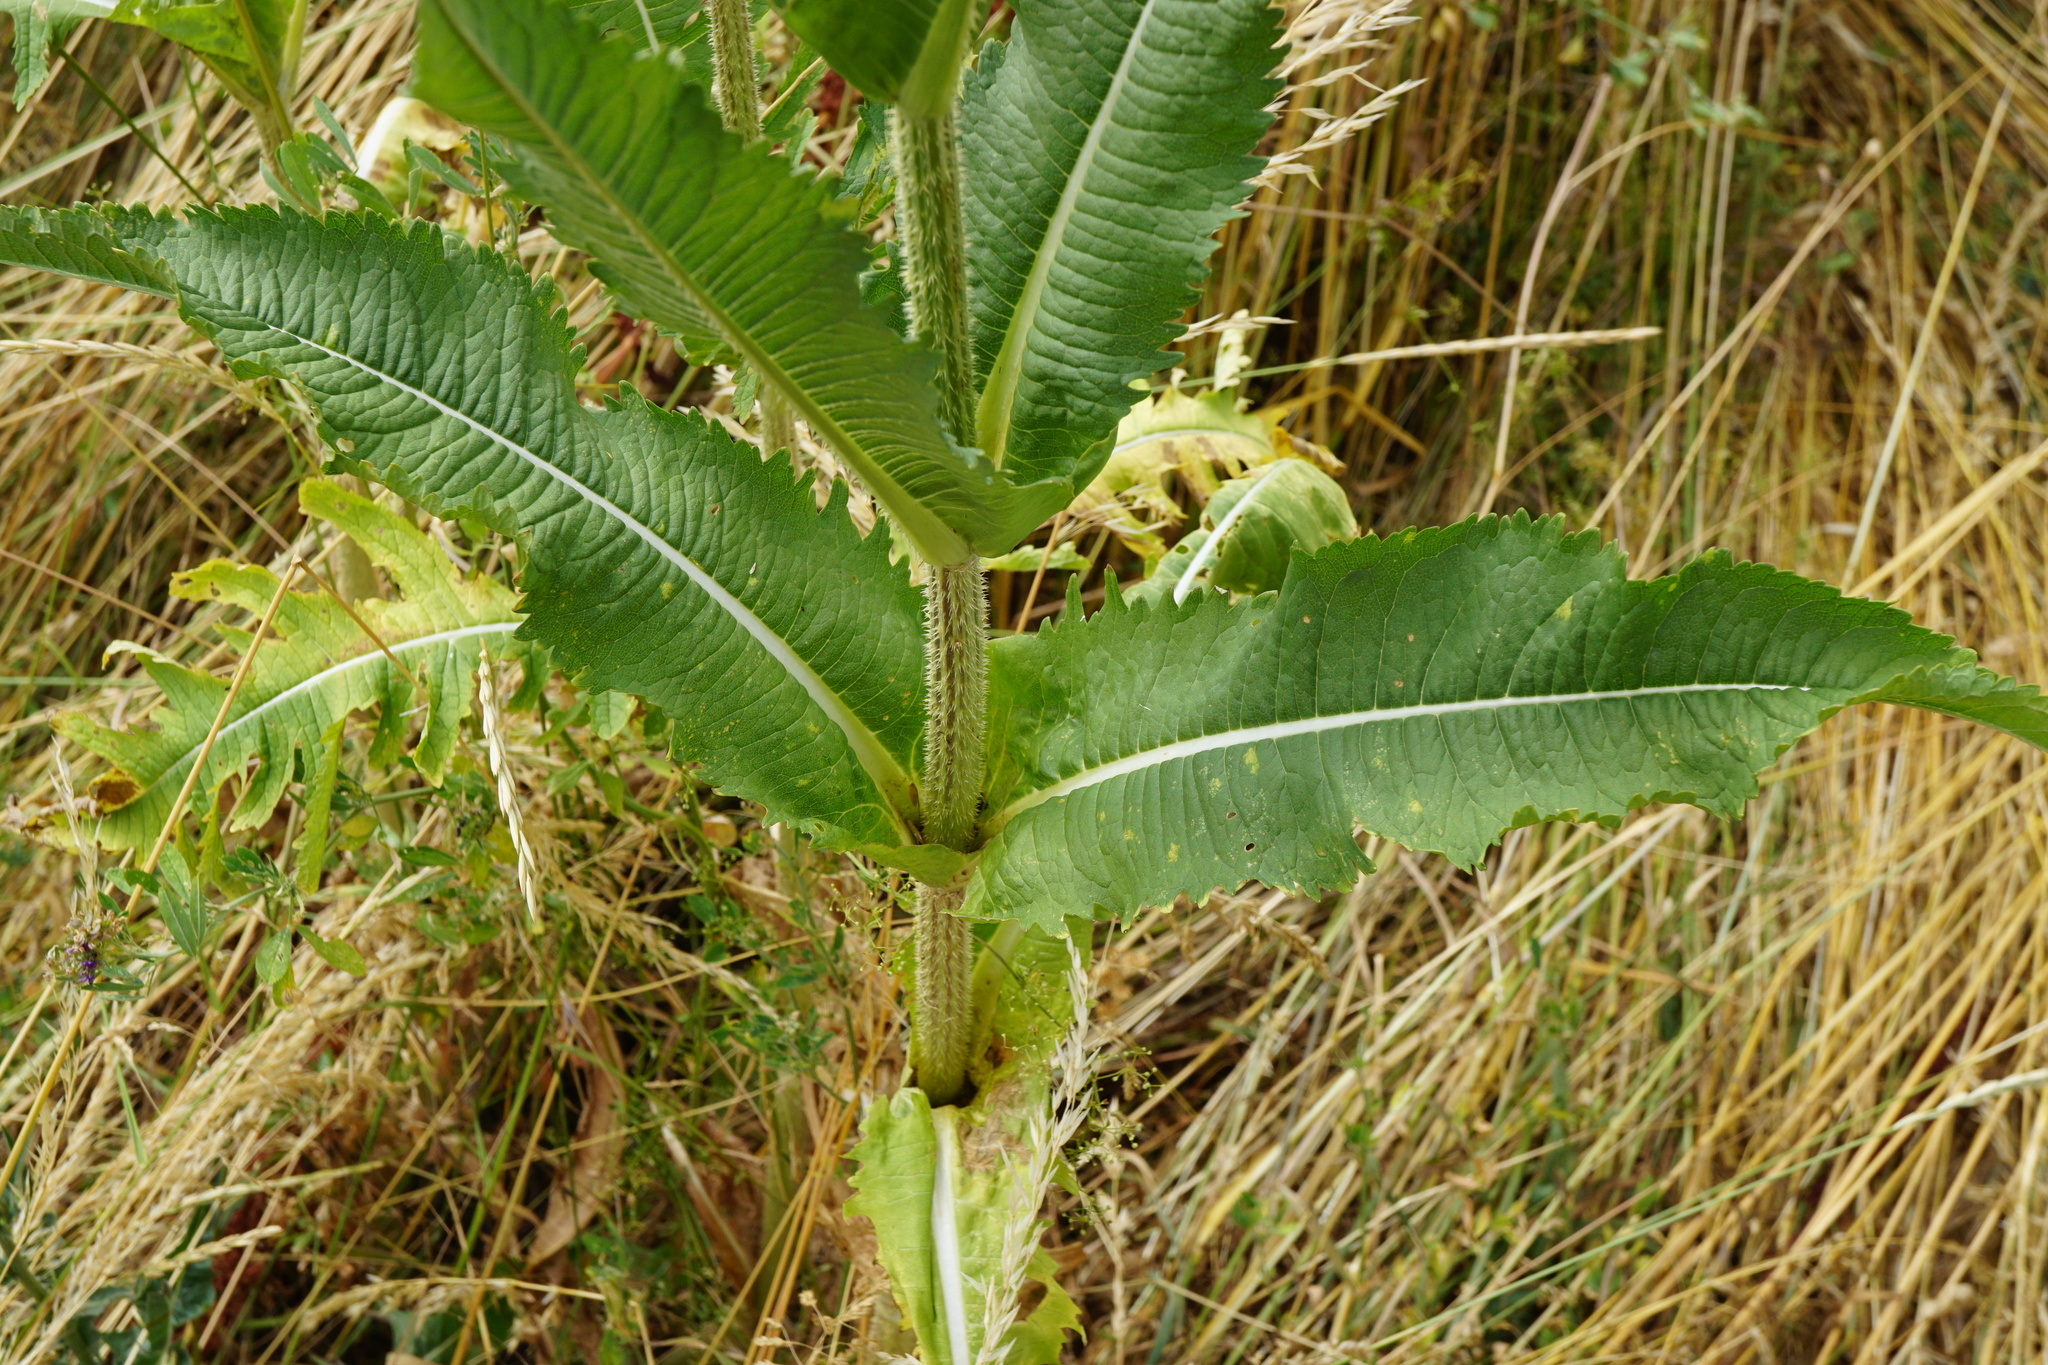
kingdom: Plantae
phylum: Tracheophyta
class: Magnoliopsida
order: Dipsacales
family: Caprifoliaceae
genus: Dipsacus
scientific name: Dipsacus laciniatus
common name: Cut-leaved teasel
